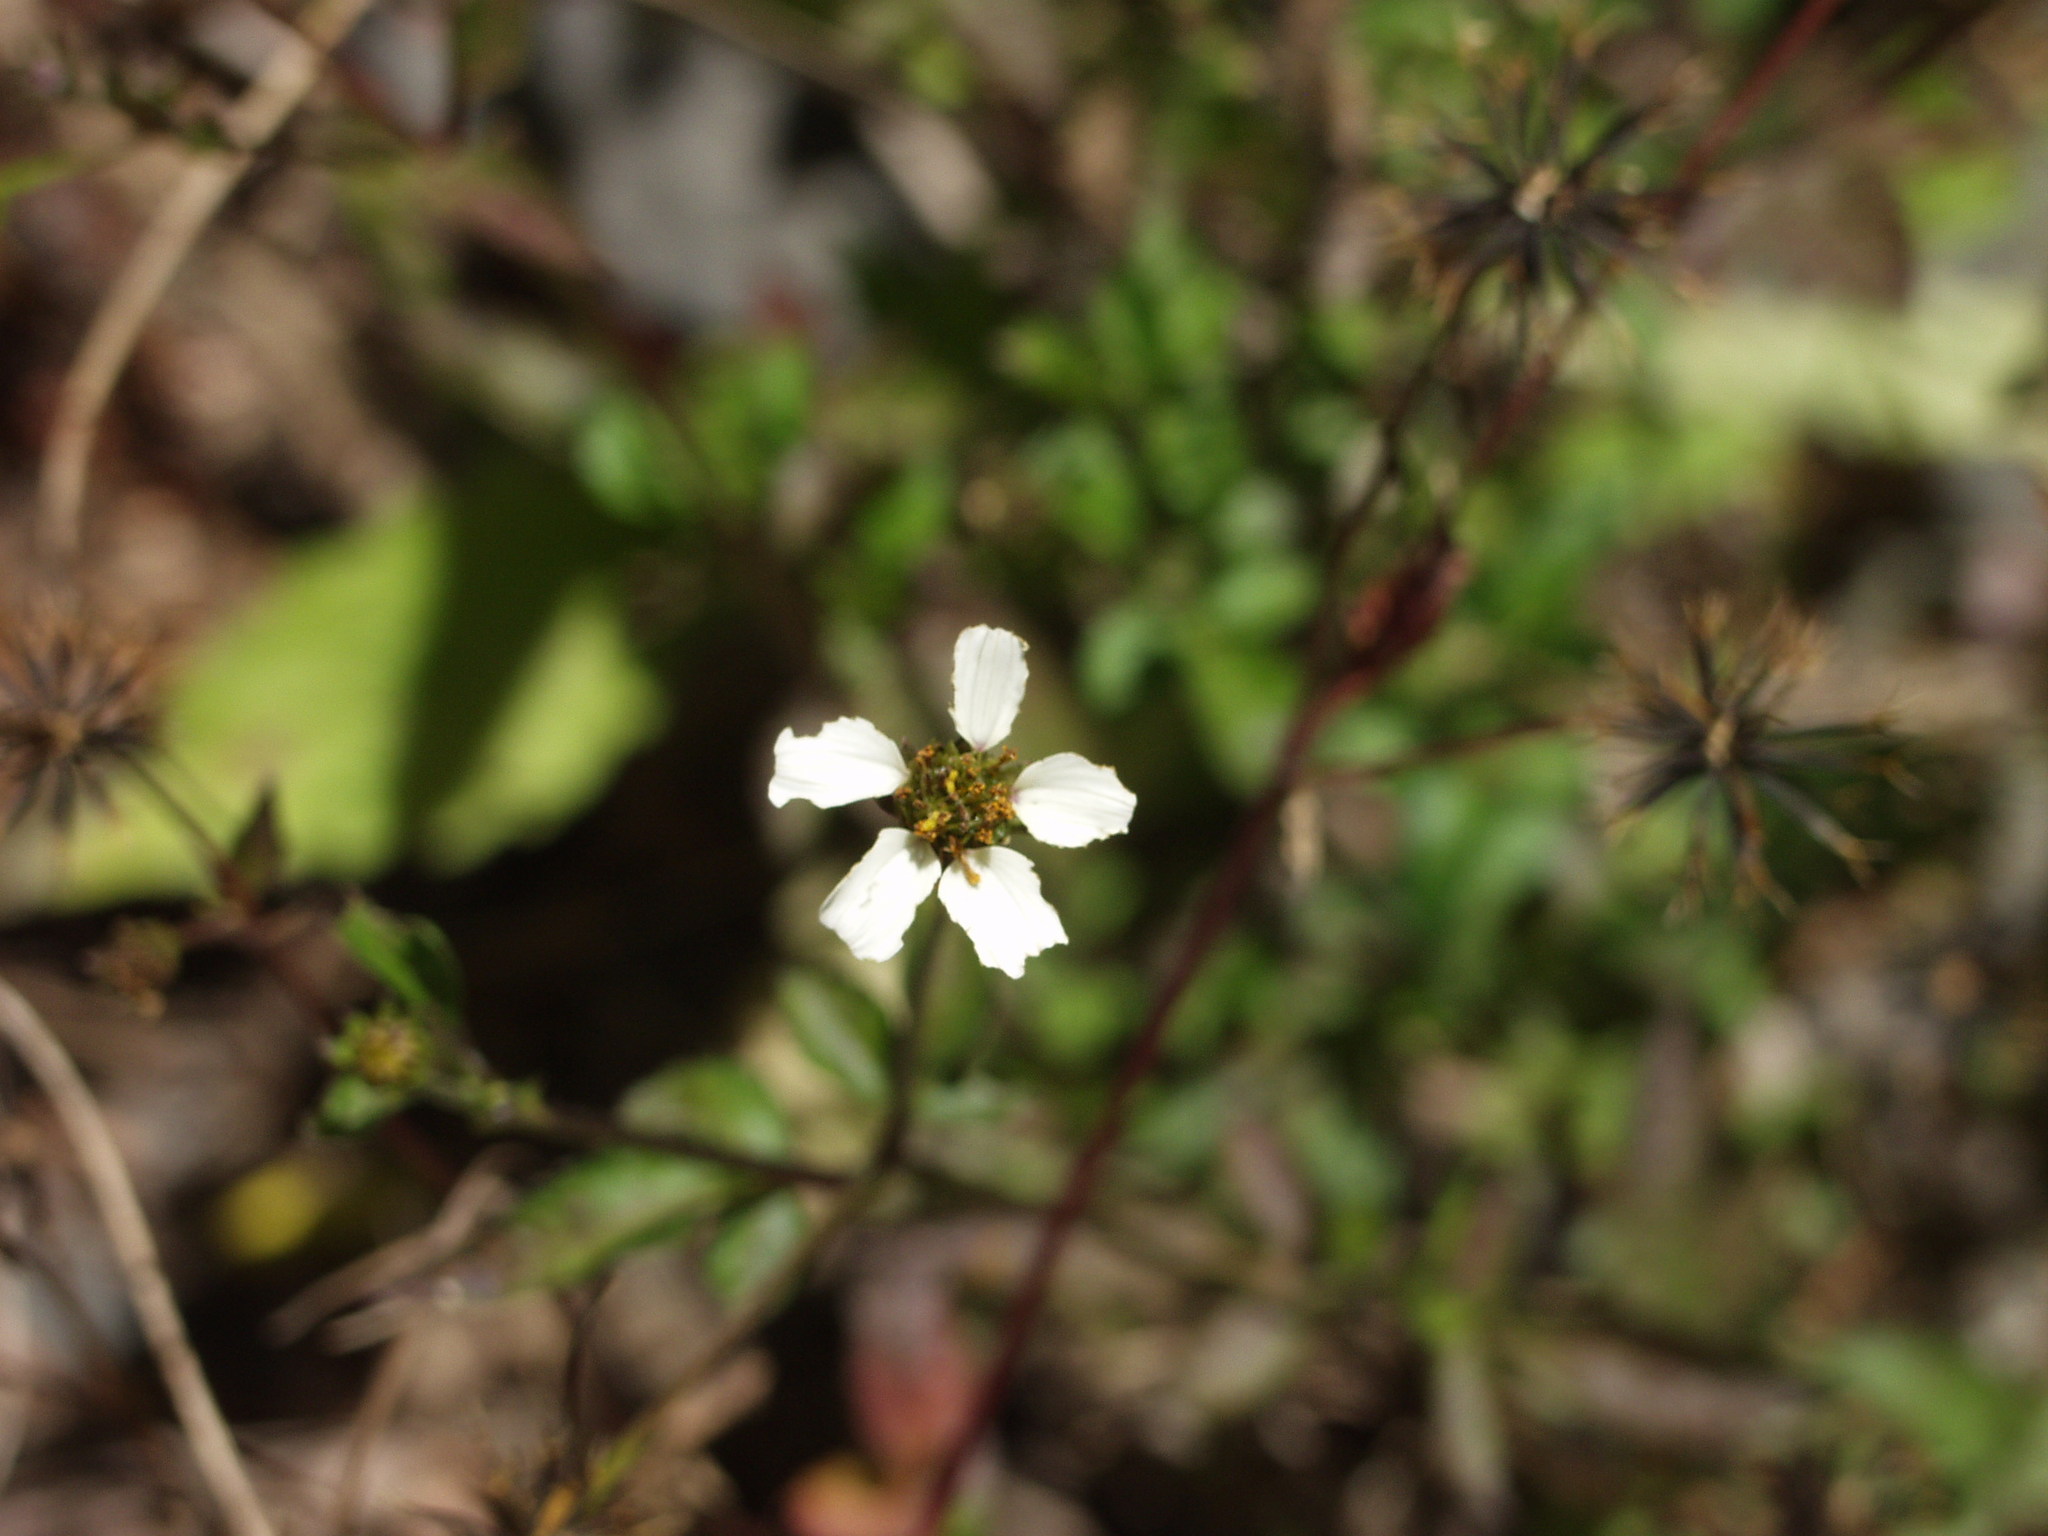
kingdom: Plantae
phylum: Tracheophyta
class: Magnoliopsida
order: Asterales
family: Asteraceae
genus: Bidens
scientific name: Bidens pilosa
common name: Black-jack
